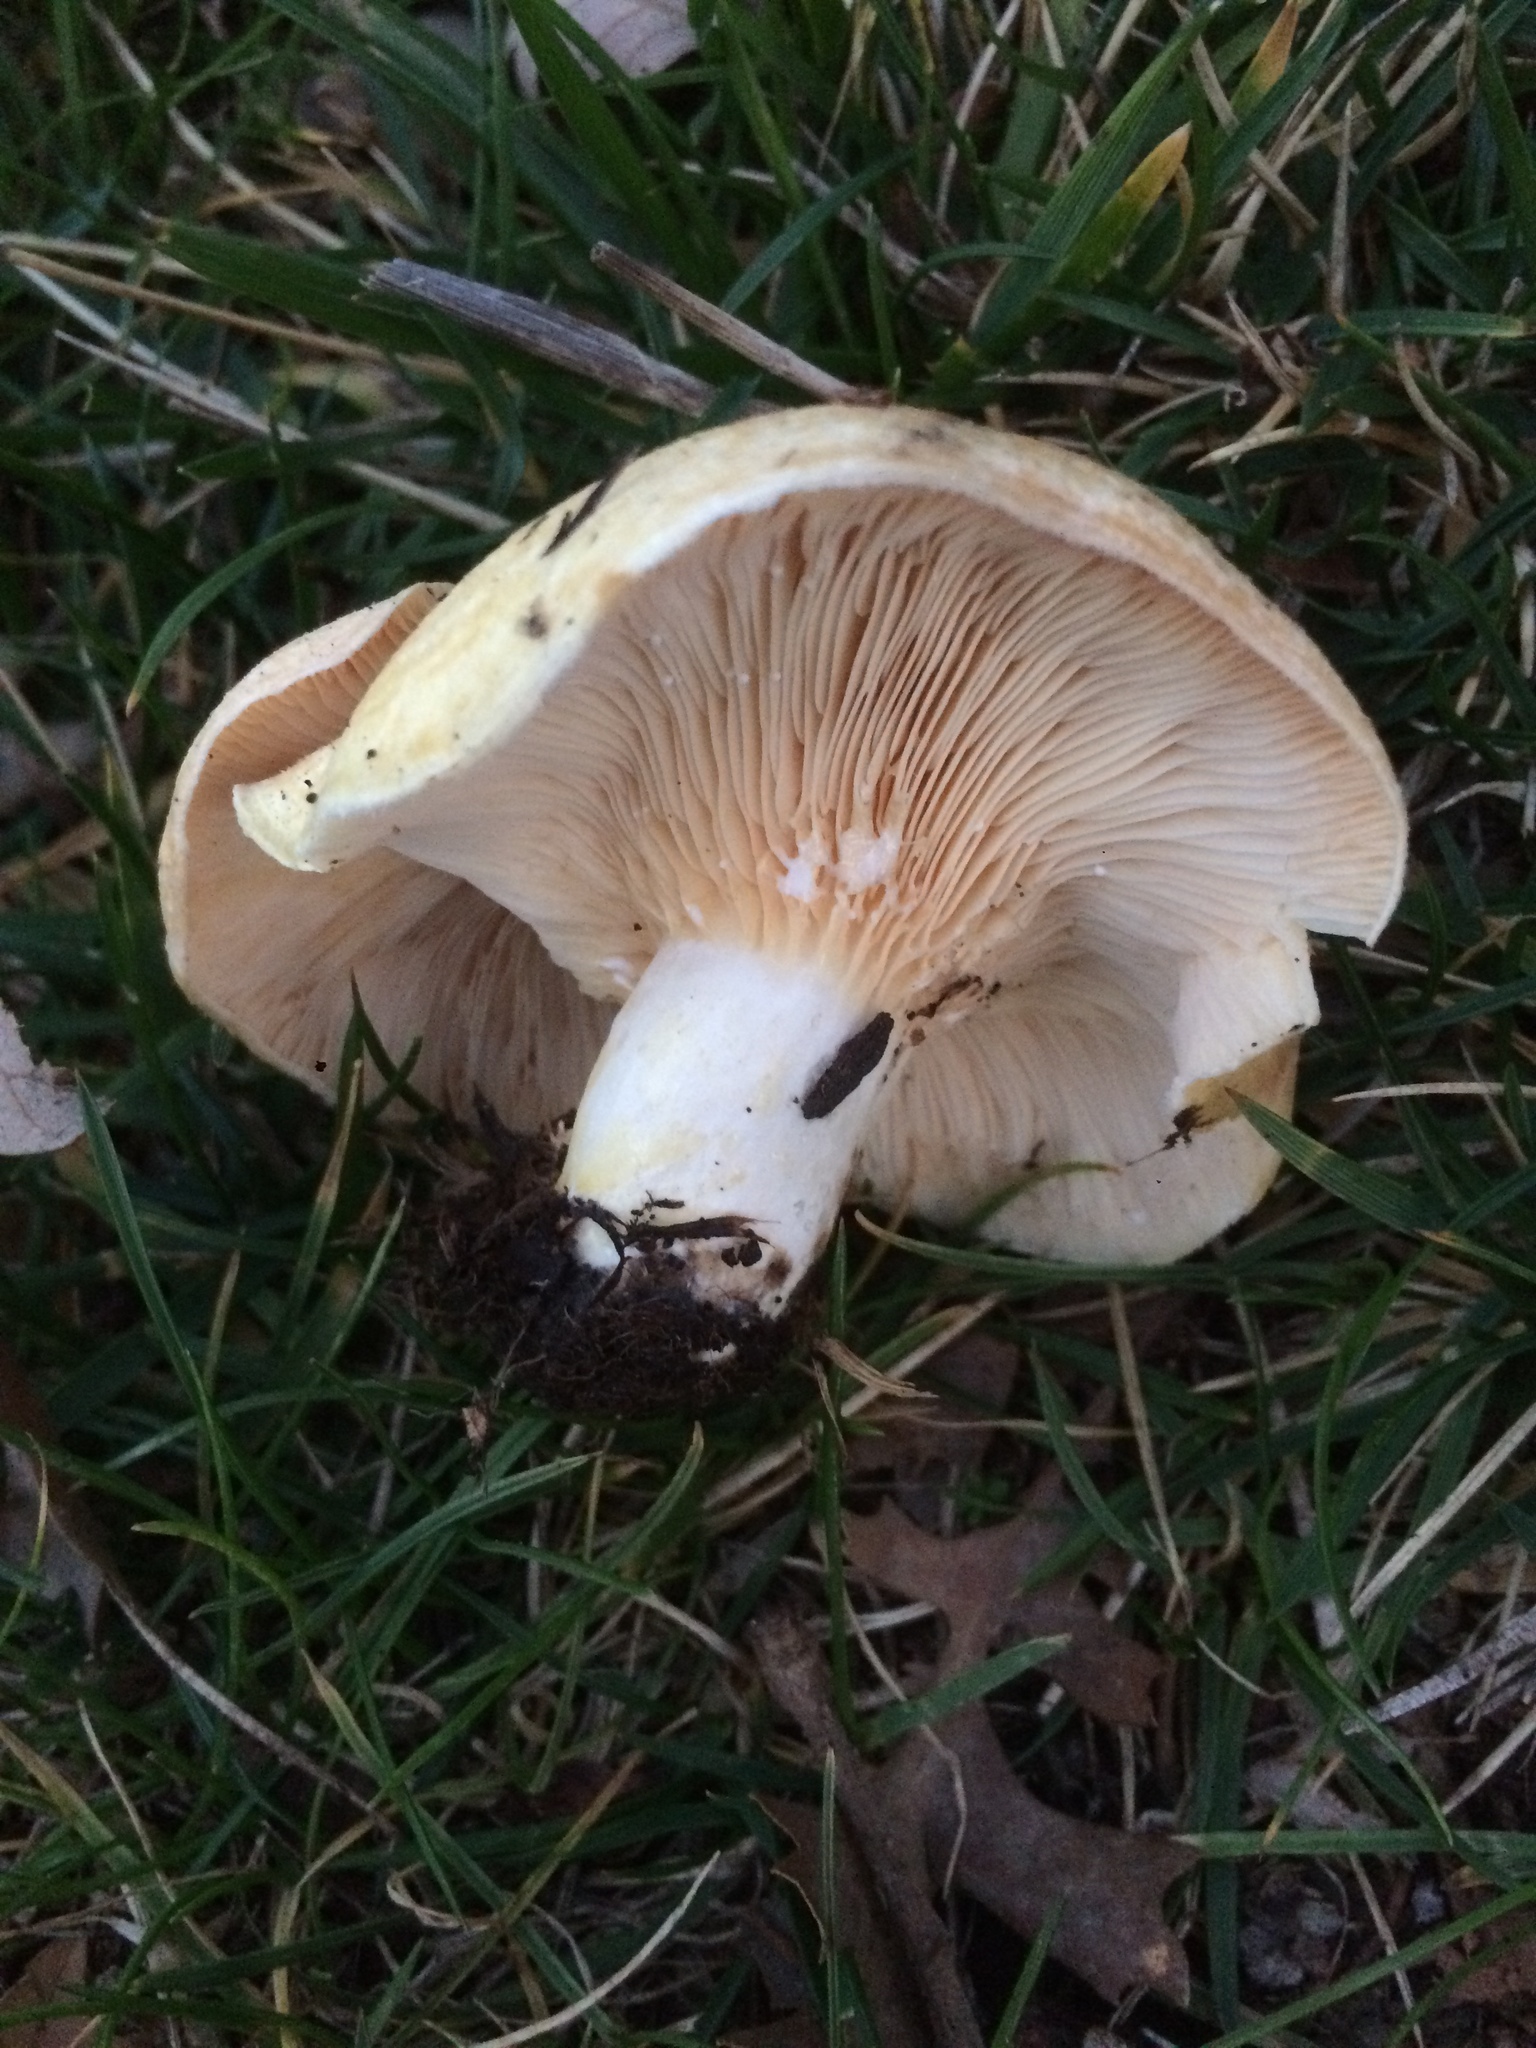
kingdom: Fungi
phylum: Basidiomycota
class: Agaricomycetes
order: Russulales
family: Russulaceae
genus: Lactarius
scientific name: Lactarius alnicola
